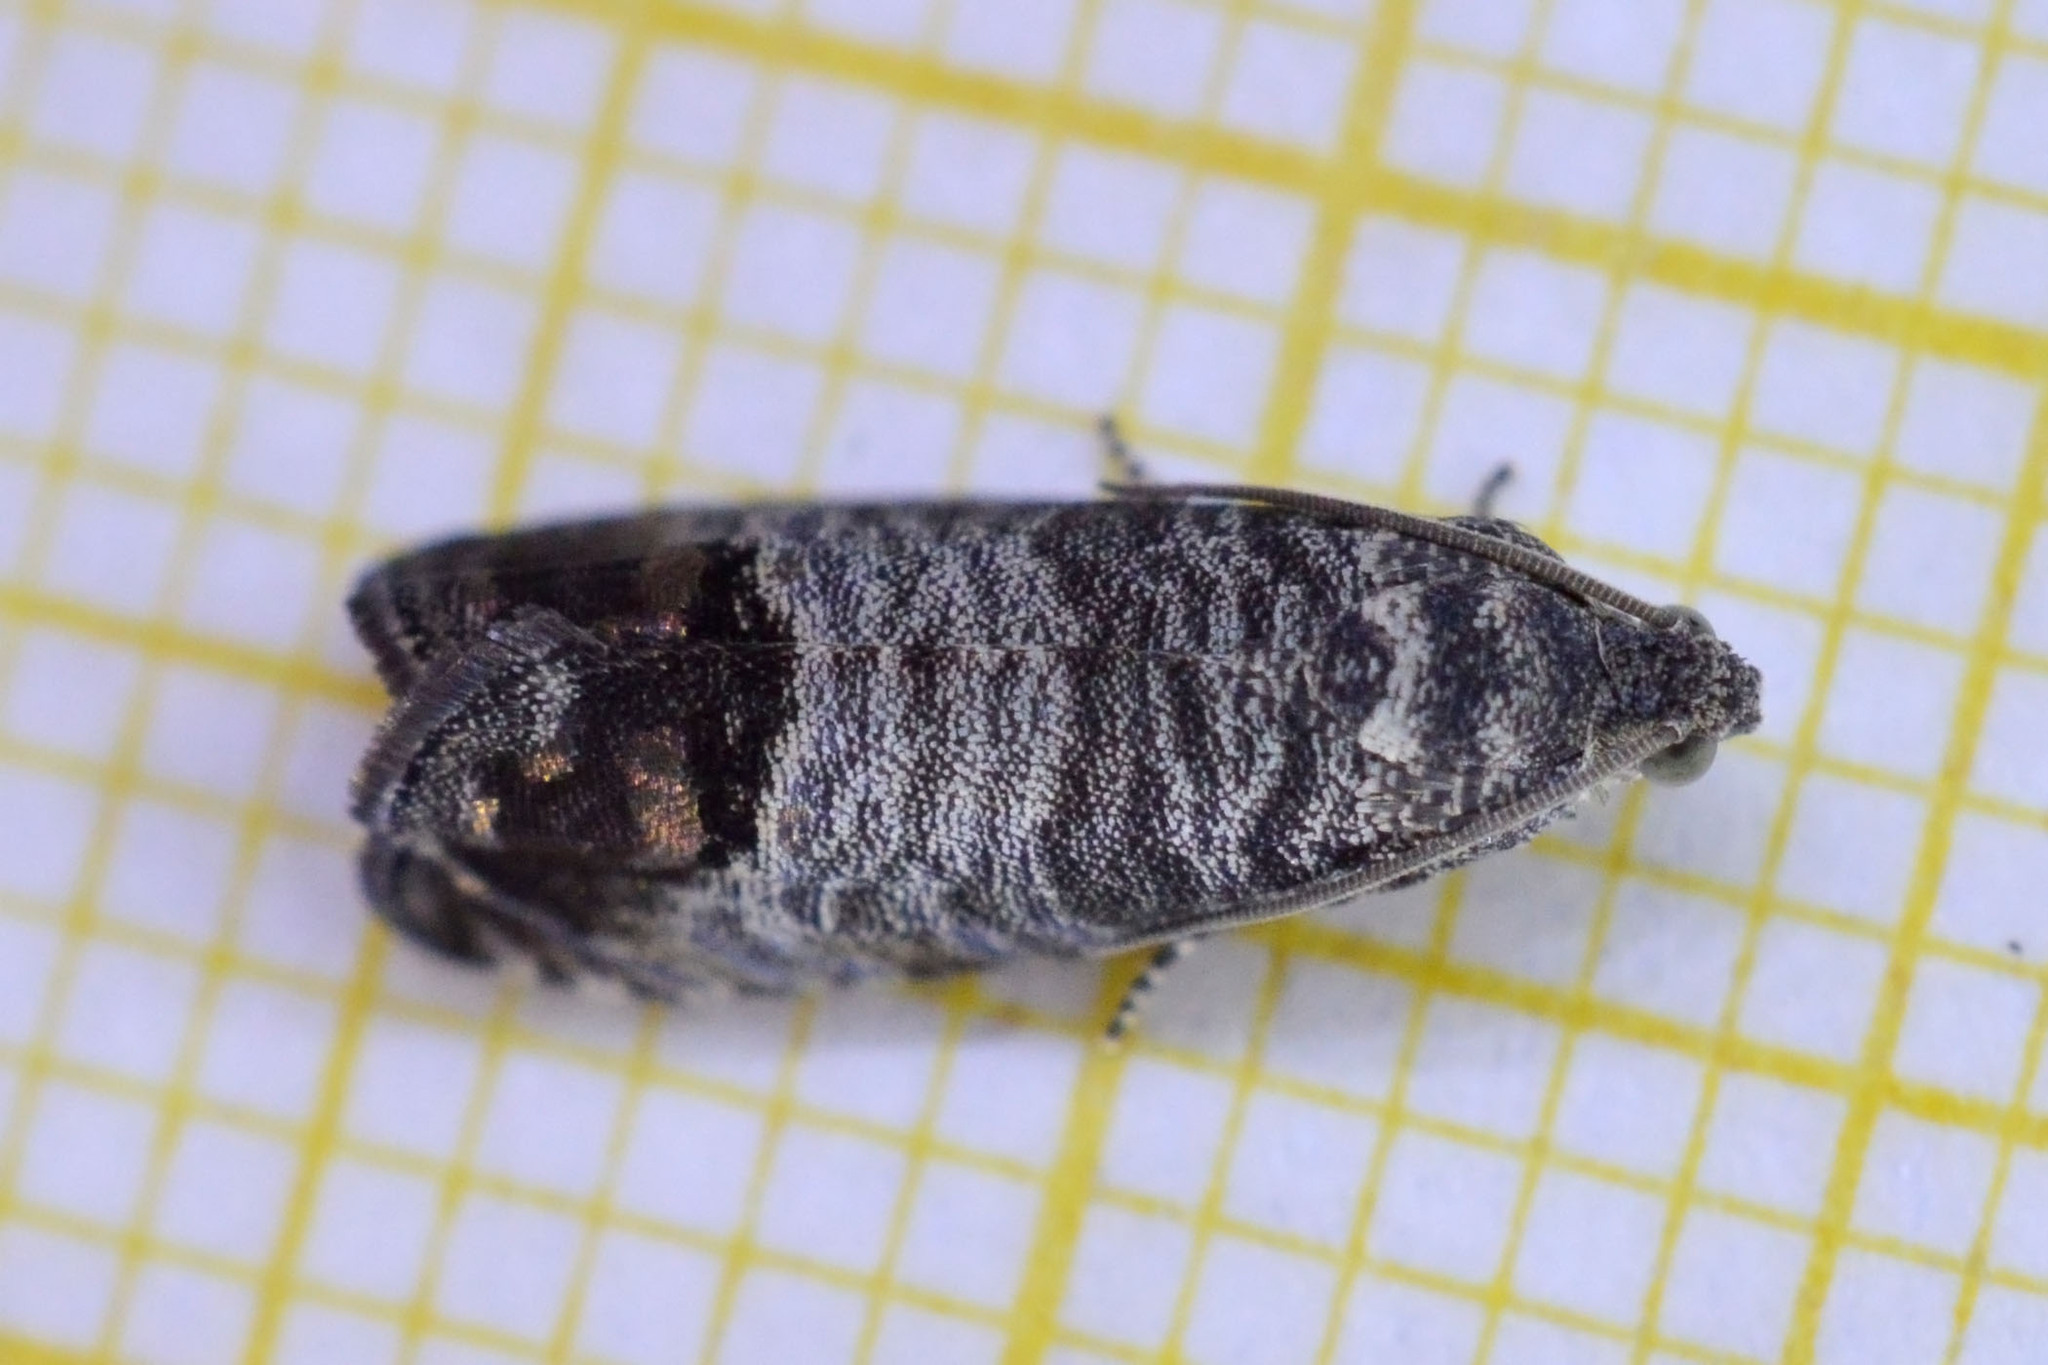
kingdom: Animalia
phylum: Arthropoda
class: Insecta
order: Lepidoptera
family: Tortricidae
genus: Cydia
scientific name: Cydia pomonella
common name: Codling moth
